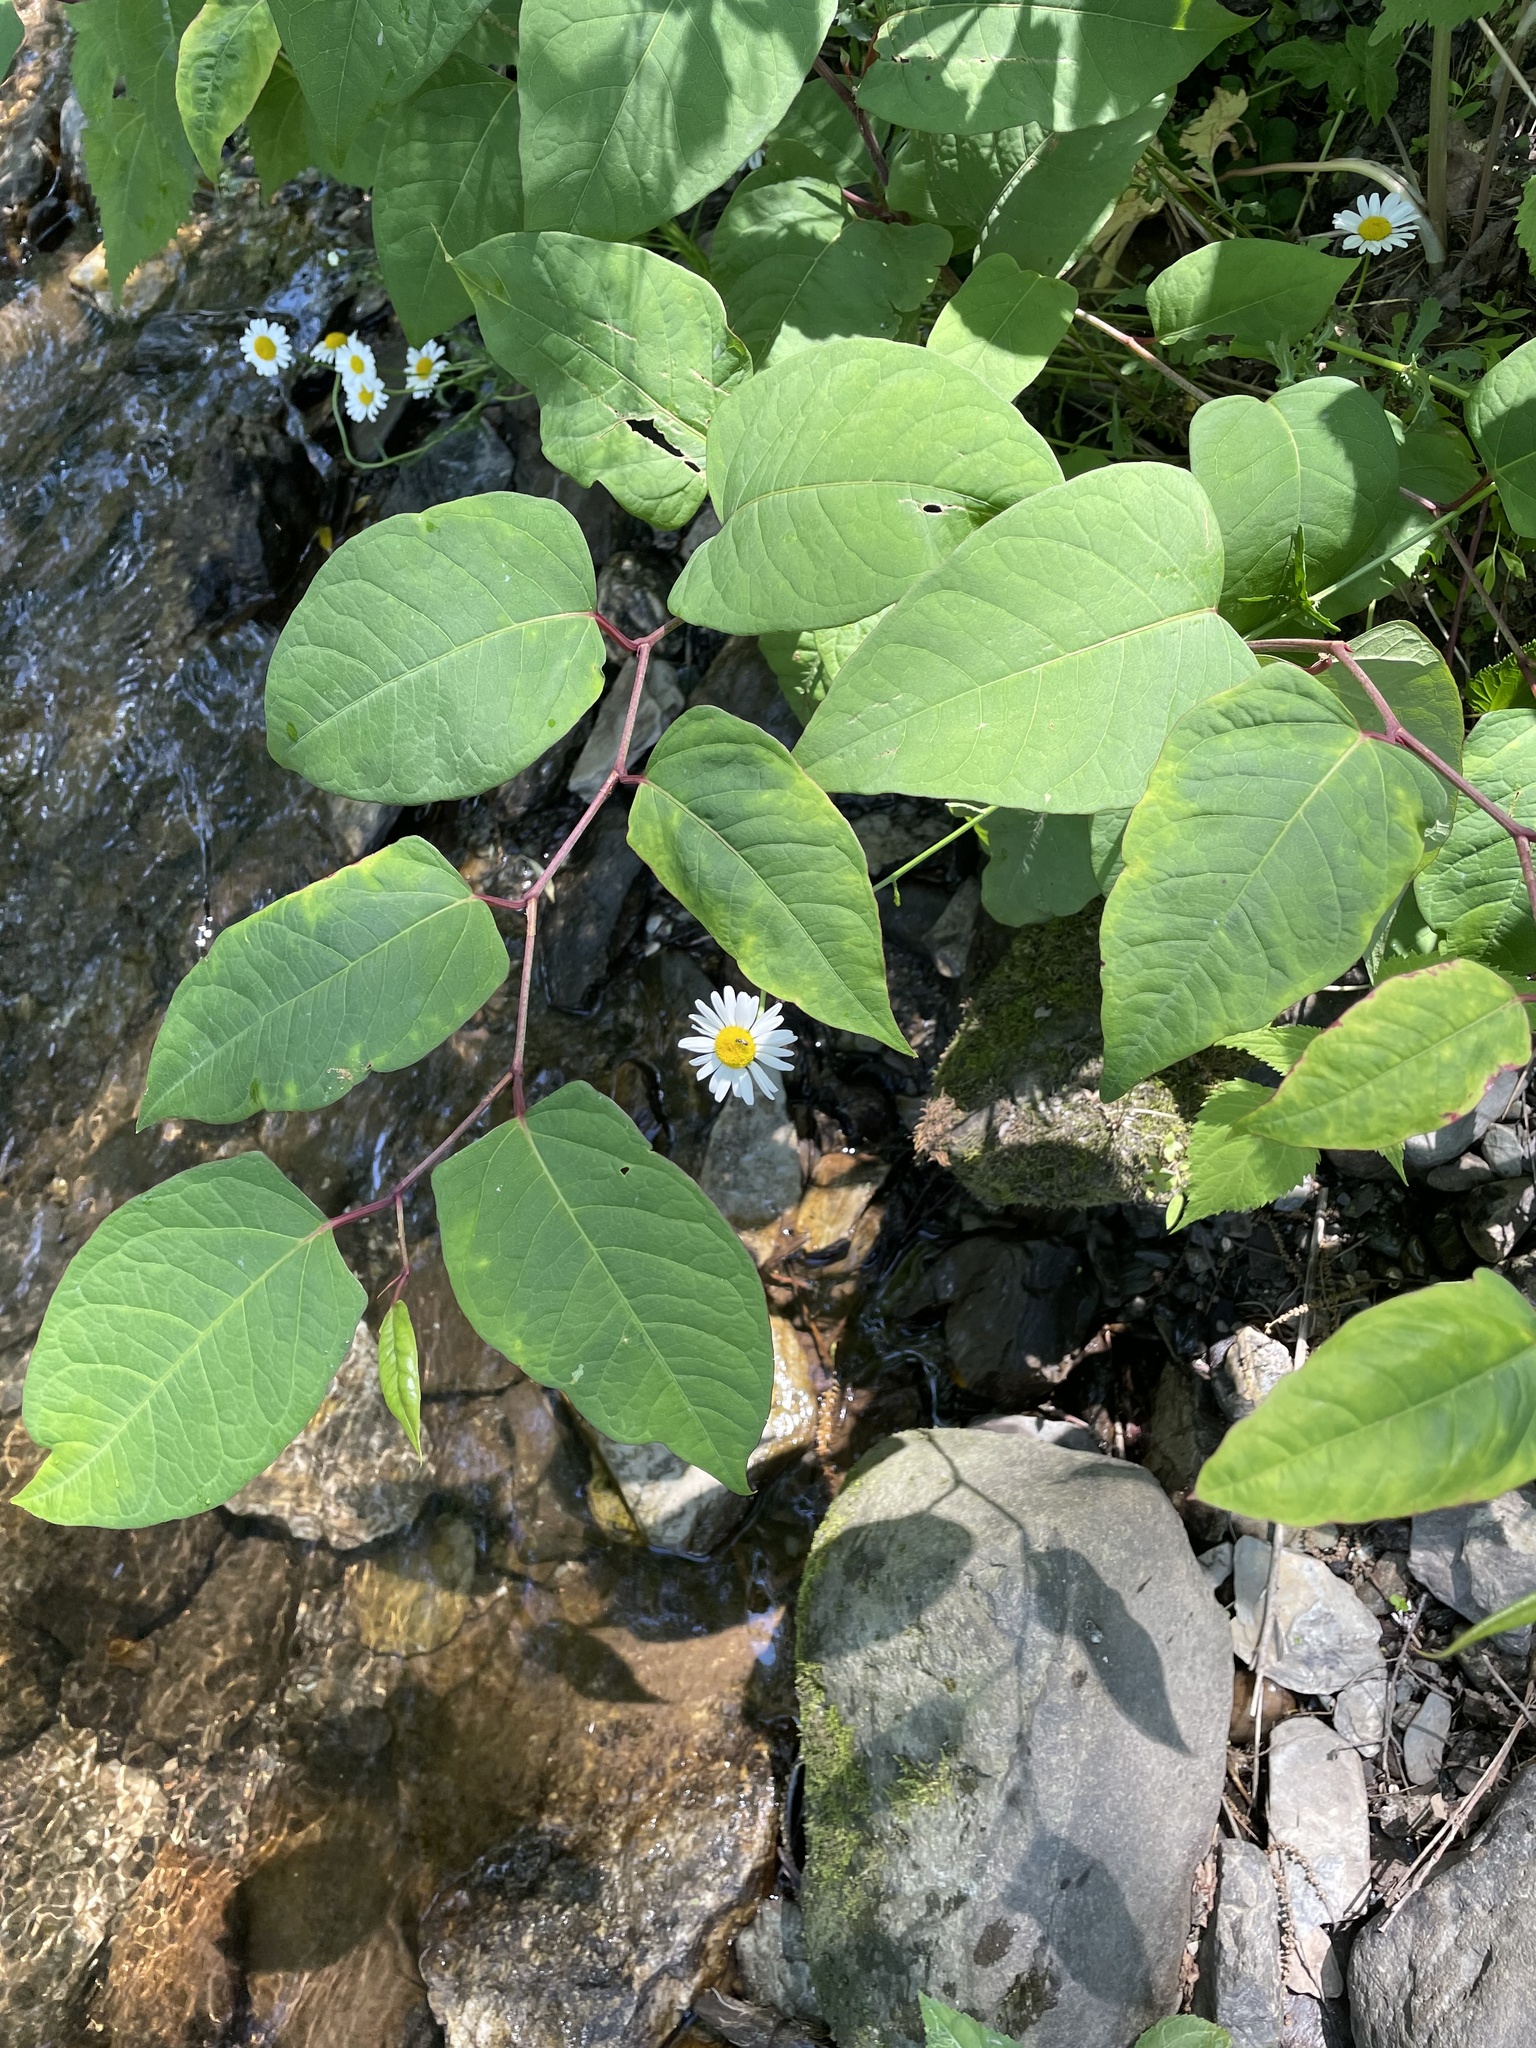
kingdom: Plantae
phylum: Tracheophyta
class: Magnoliopsida
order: Caryophyllales
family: Polygonaceae
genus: Reynoutria
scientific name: Reynoutria japonica
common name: Japanese knotweed
